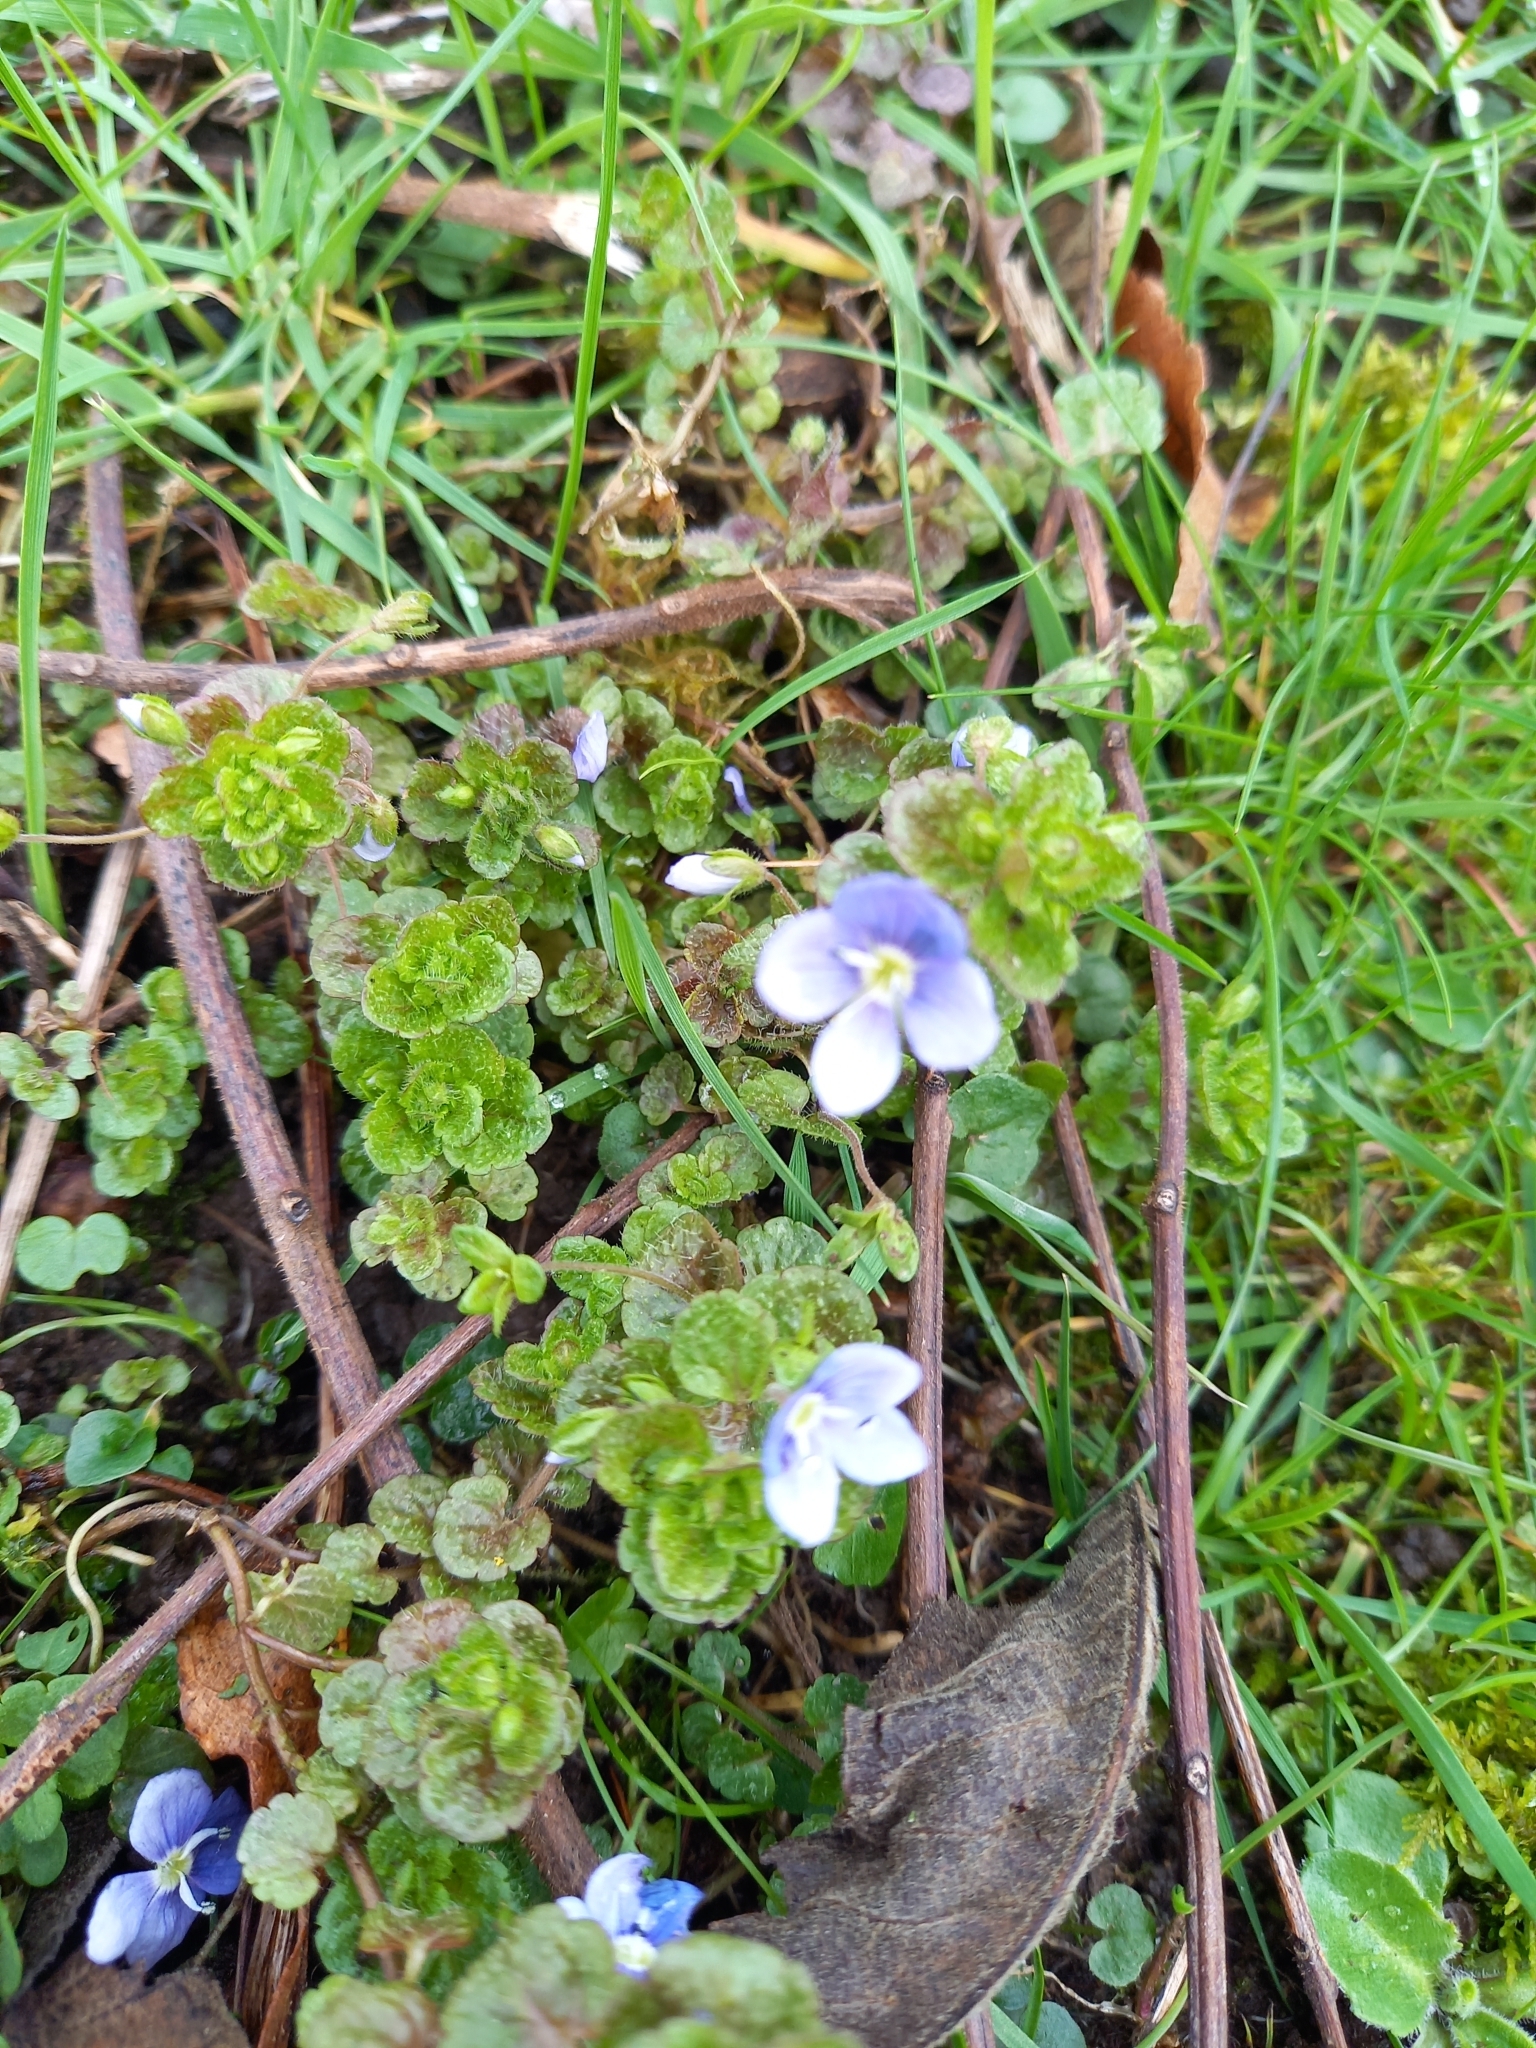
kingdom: Plantae
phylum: Tracheophyta
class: Magnoliopsida
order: Lamiales
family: Plantaginaceae
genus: Veronica
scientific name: Veronica filiformis
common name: Slender speedwell
